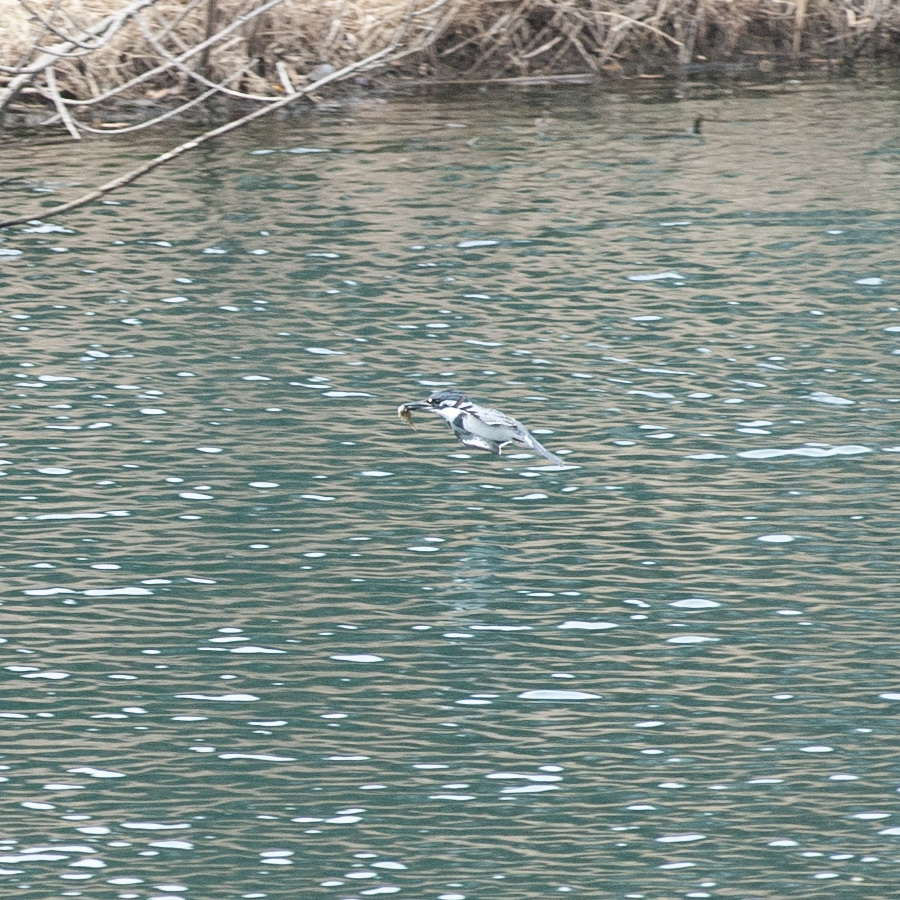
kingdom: Animalia
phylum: Chordata
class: Aves
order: Coraciiformes
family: Alcedinidae
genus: Megaceryle
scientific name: Megaceryle alcyon
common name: Belted kingfisher
